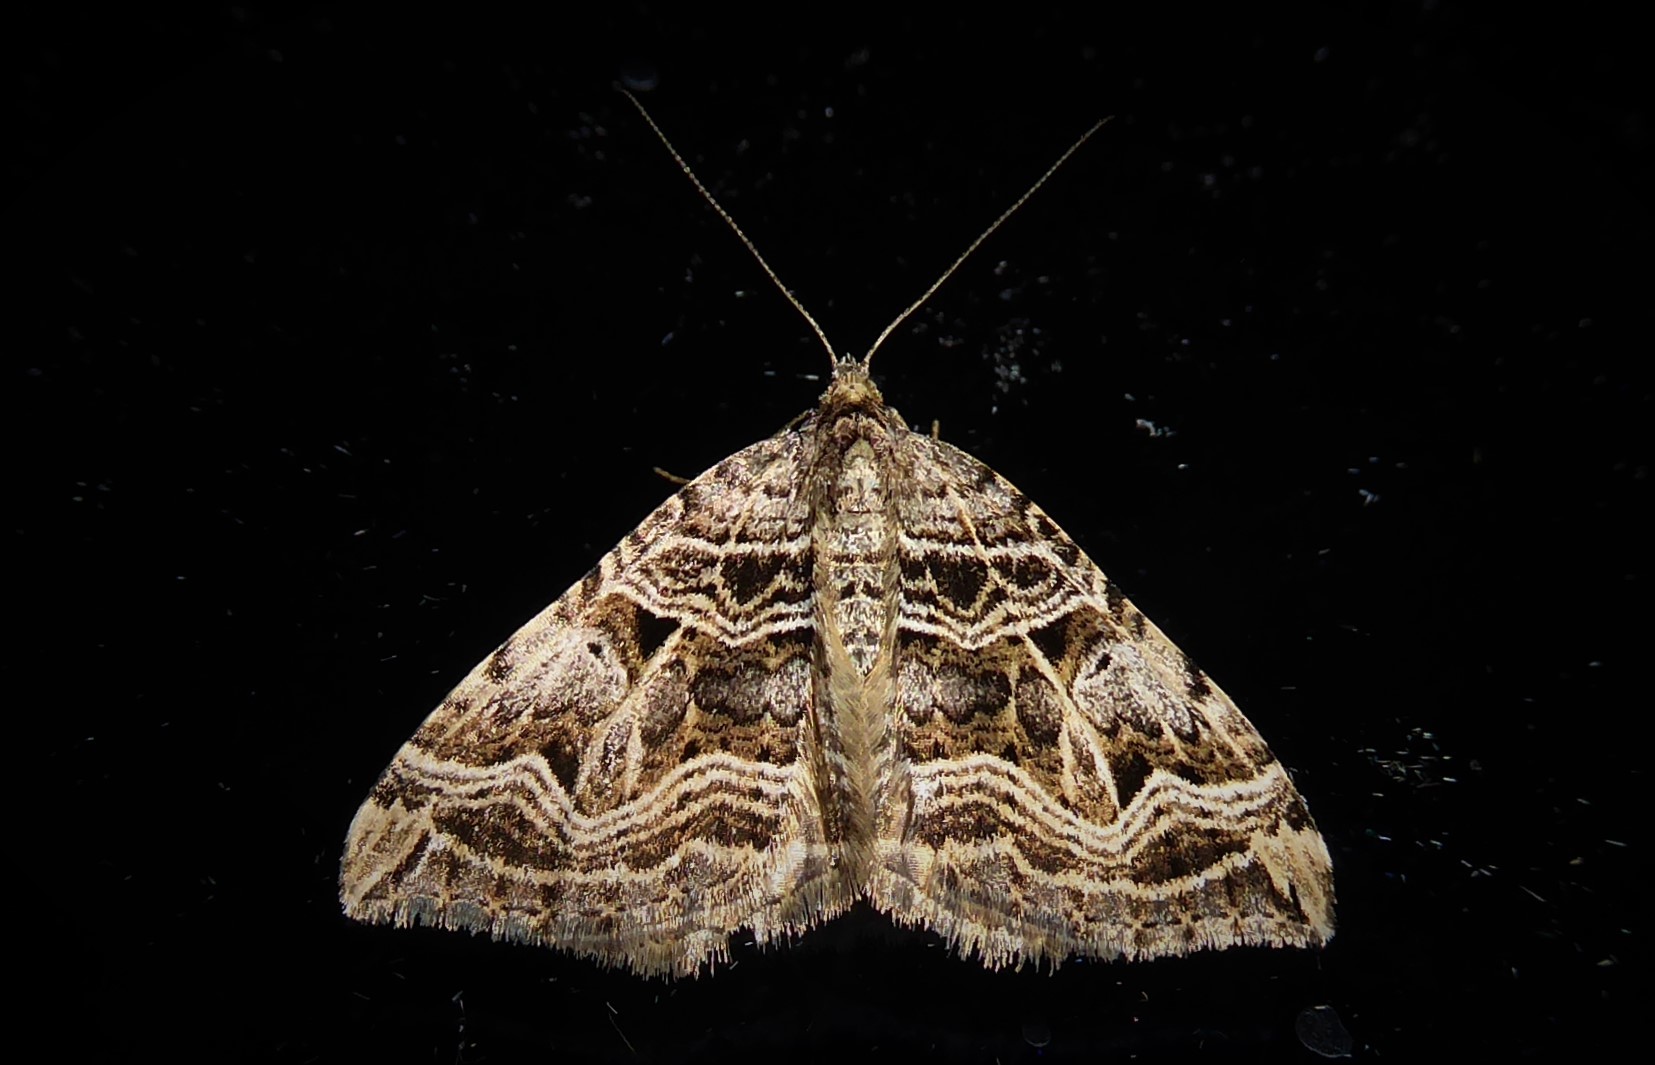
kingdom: Animalia
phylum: Arthropoda
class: Insecta
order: Lepidoptera
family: Geometridae
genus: Xanthorhoe
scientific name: Xanthorhoe semifissata
